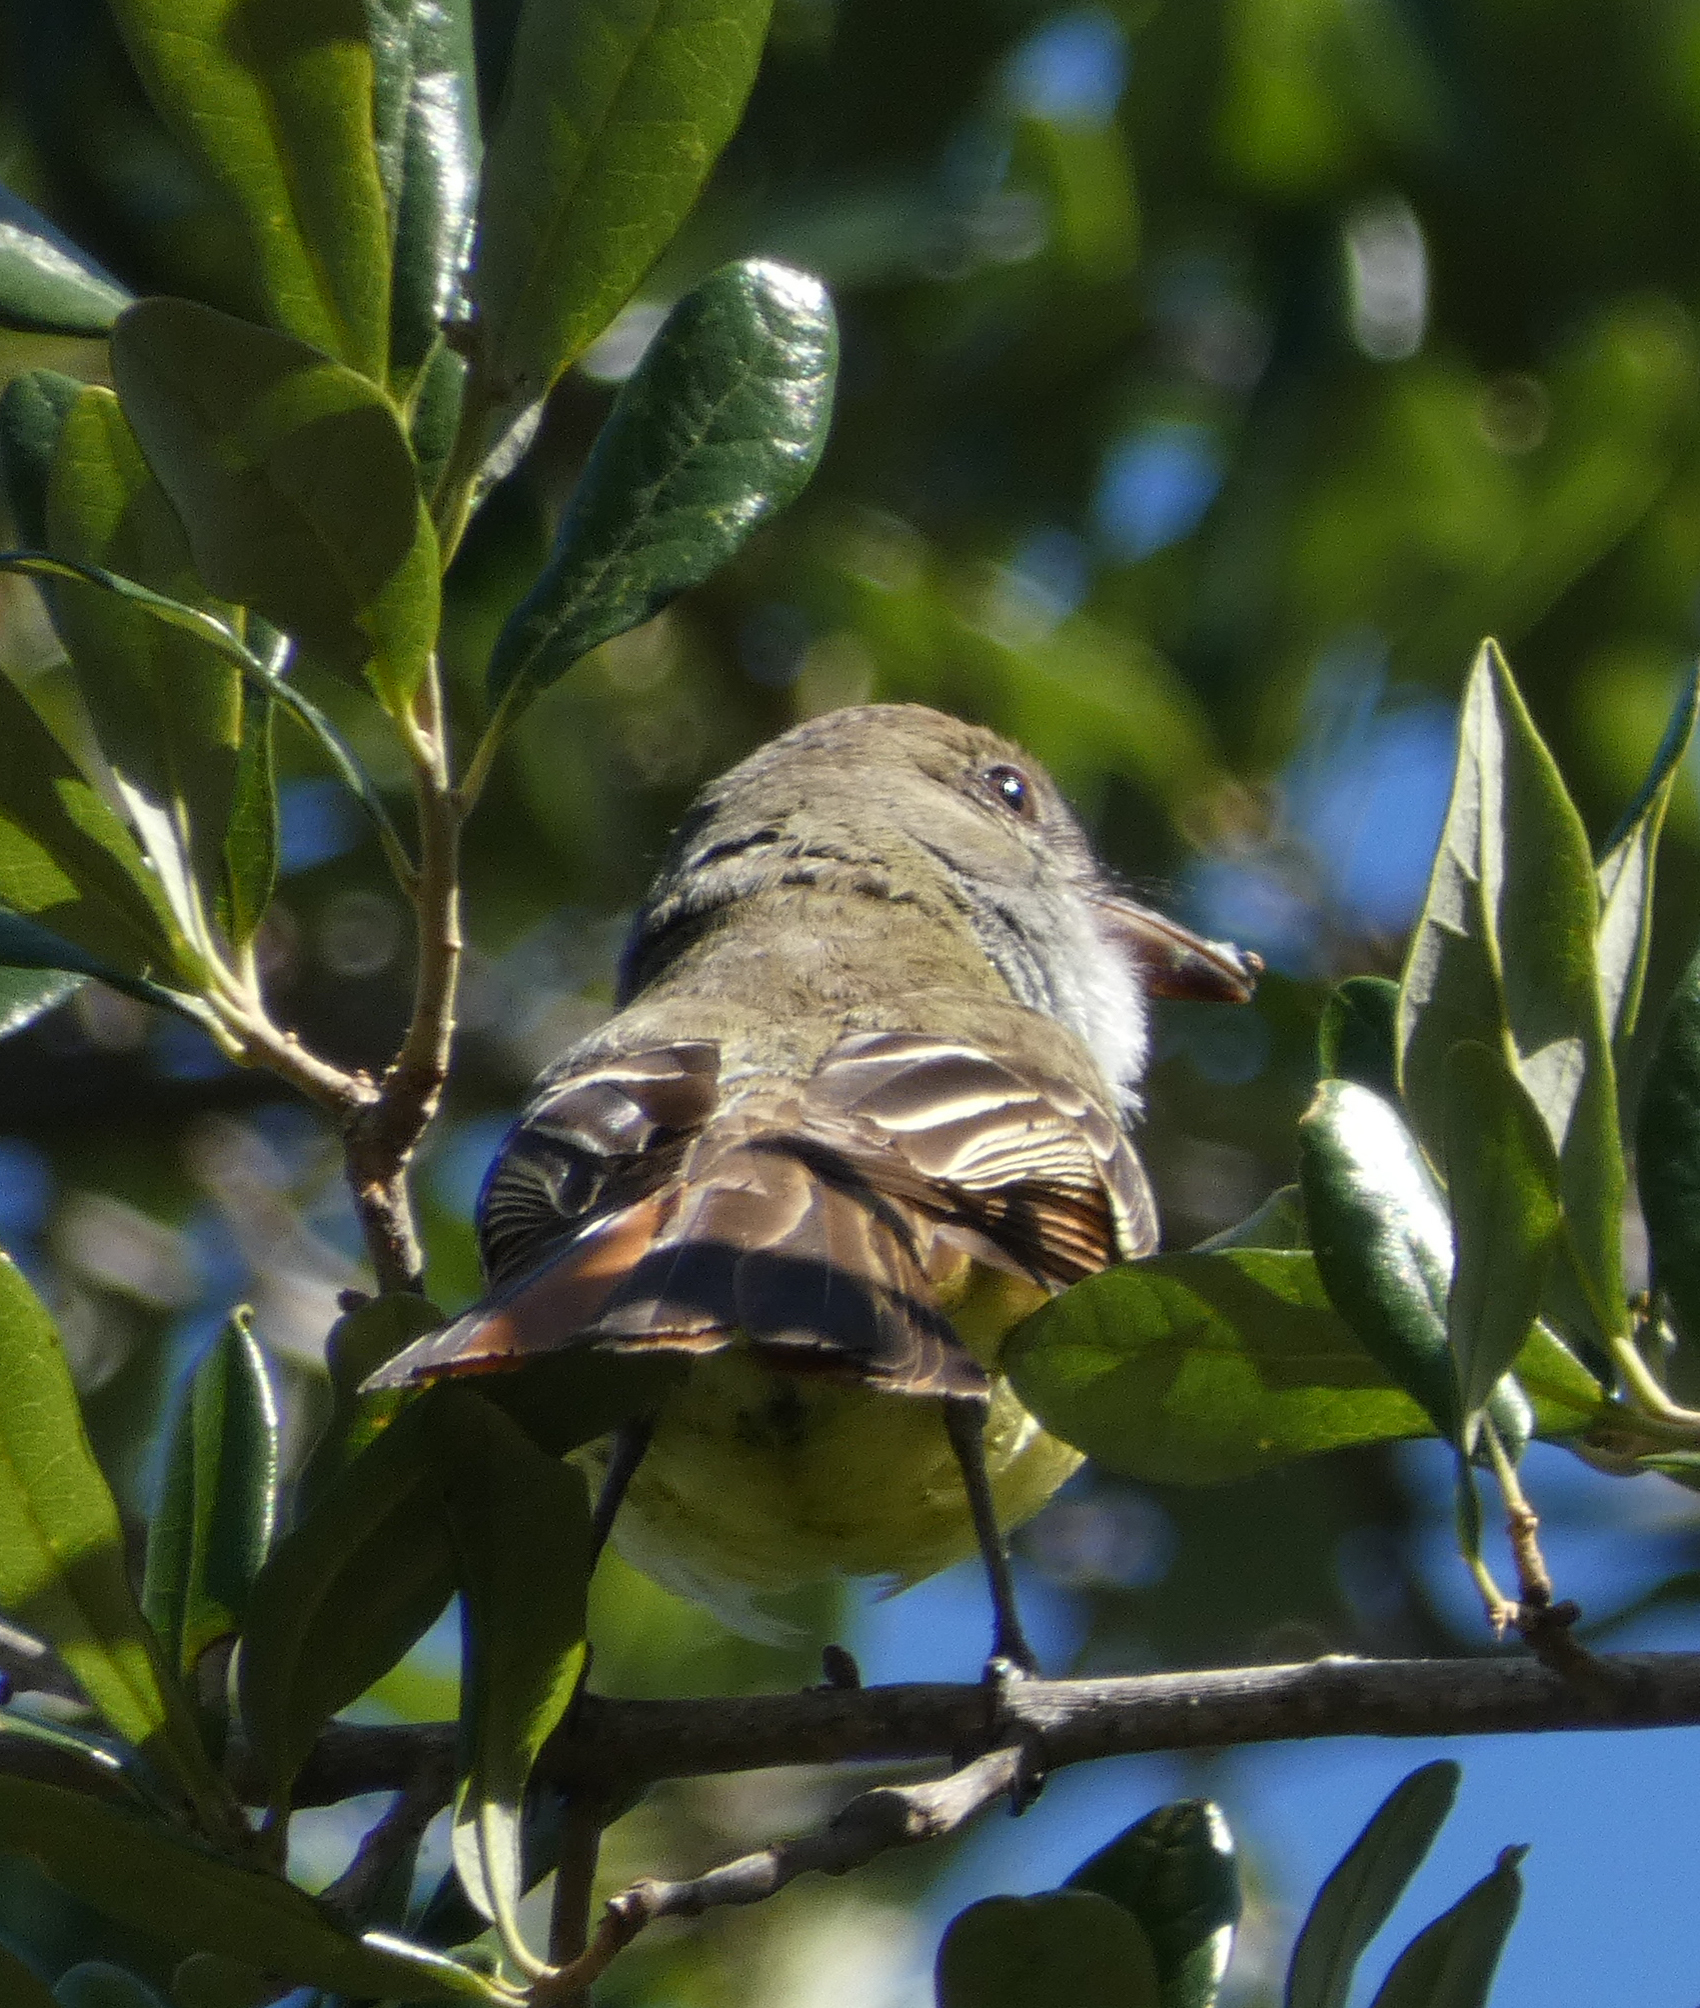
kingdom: Animalia
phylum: Chordata
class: Aves
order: Passeriformes
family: Tyrannidae
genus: Myiarchus
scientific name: Myiarchus crinitus
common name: Great crested flycatcher
